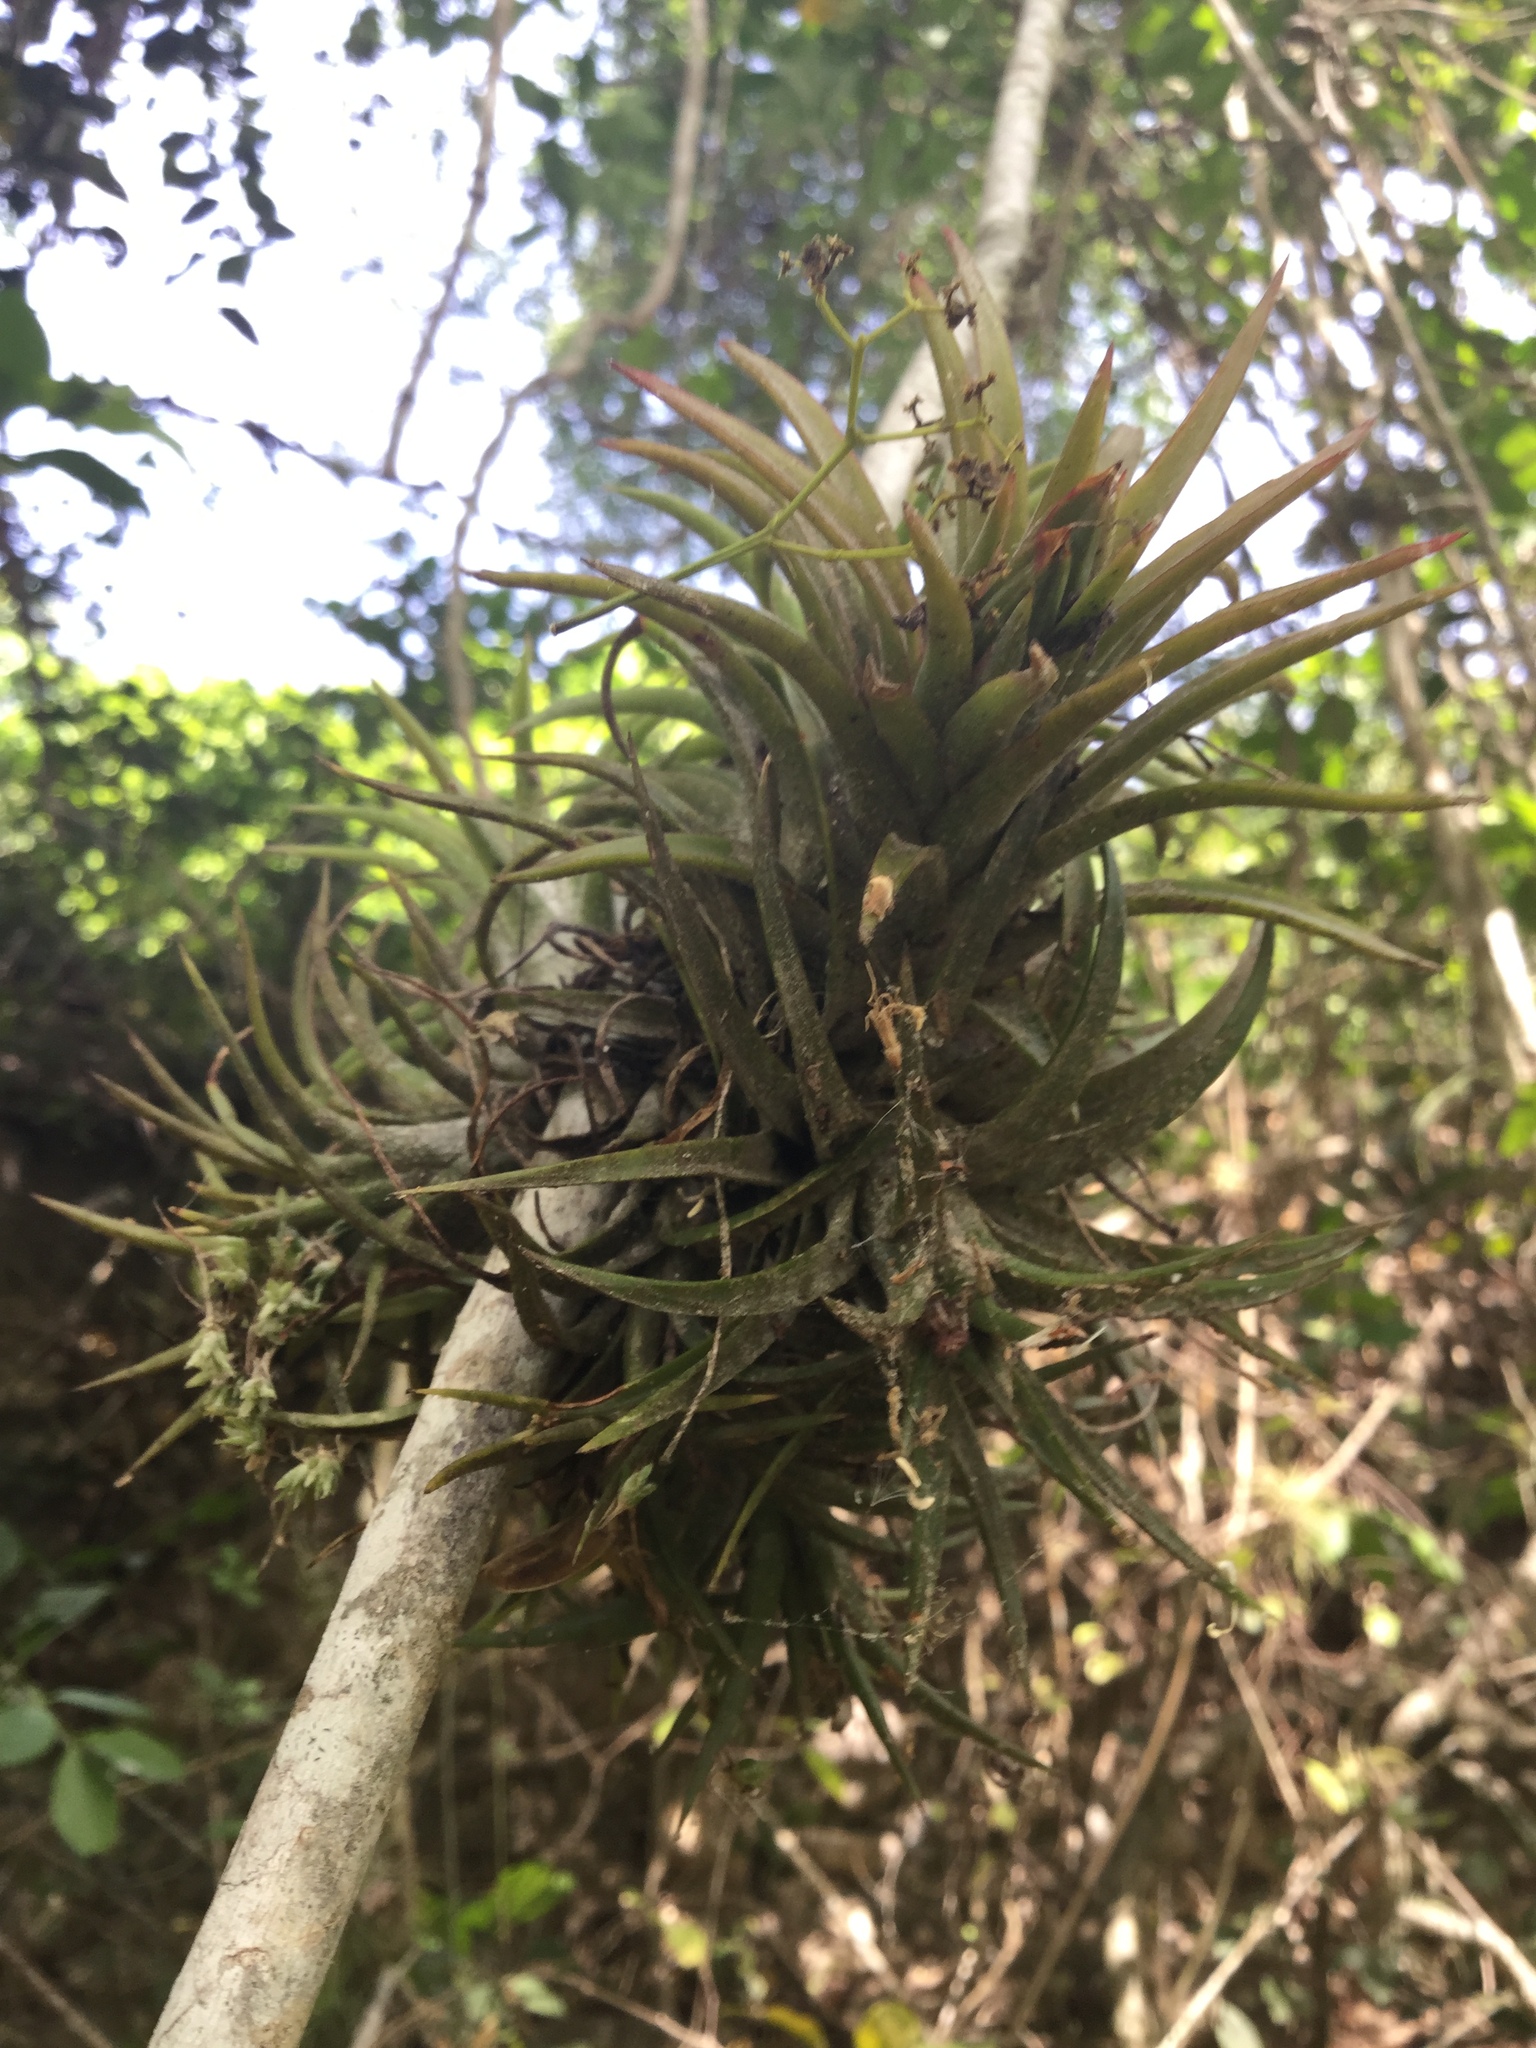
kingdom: Plantae
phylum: Tracheophyta
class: Liliopsida
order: Poales
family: Bromeliaceae
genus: Tillandsia
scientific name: Tillandsia ionantha
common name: Sky plant
